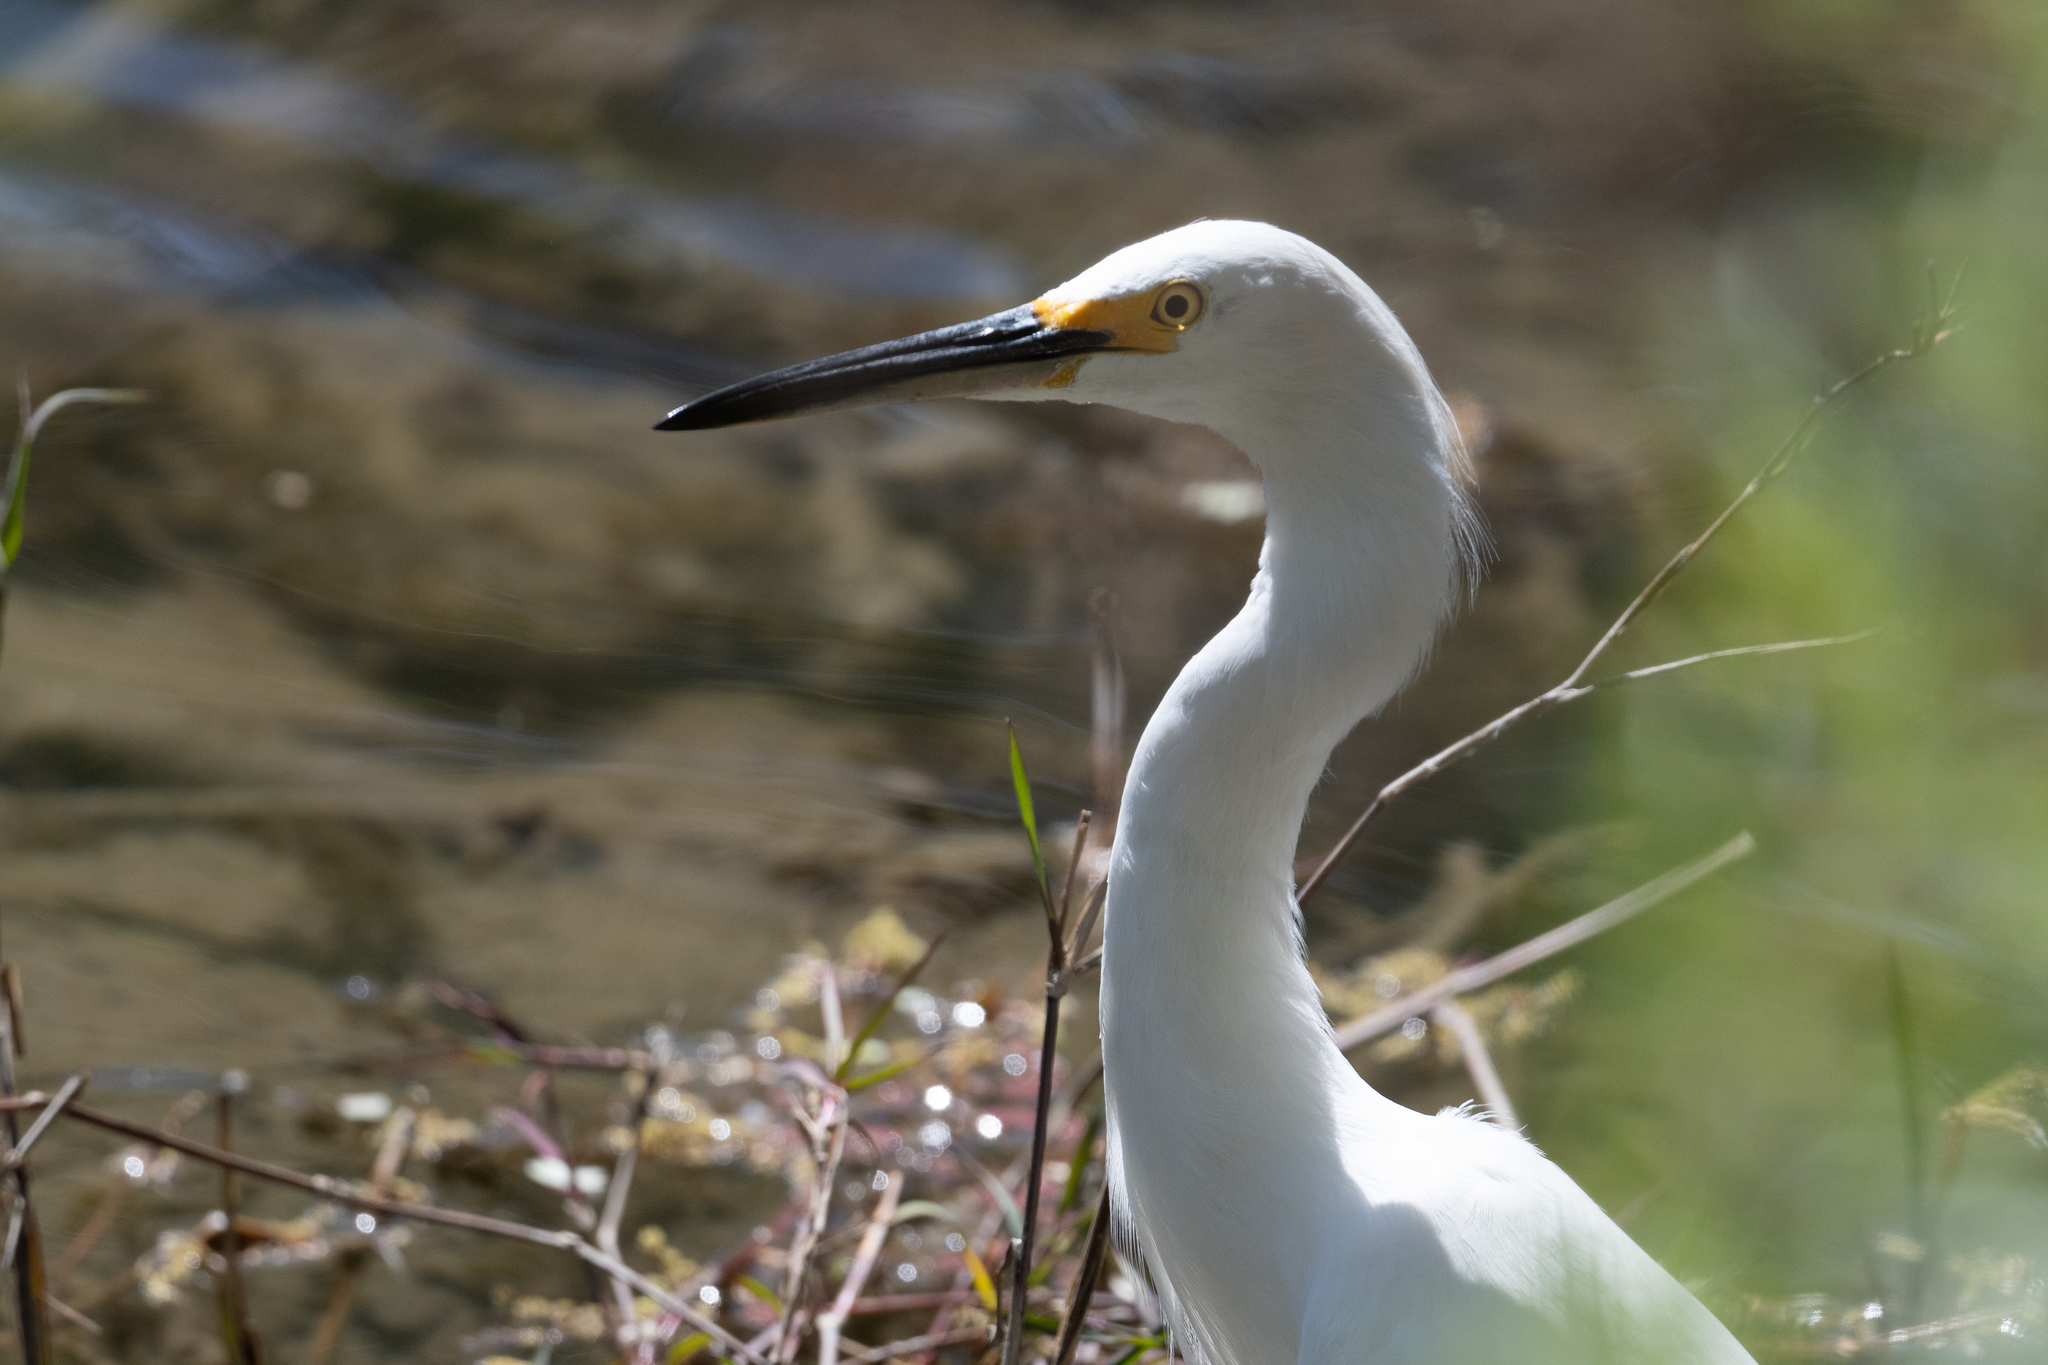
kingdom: Animalia
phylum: Chordata
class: Aves
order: Pelecaniformes
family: Ardeidae
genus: Egretta
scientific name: Egretta thula
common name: Snowy egret
